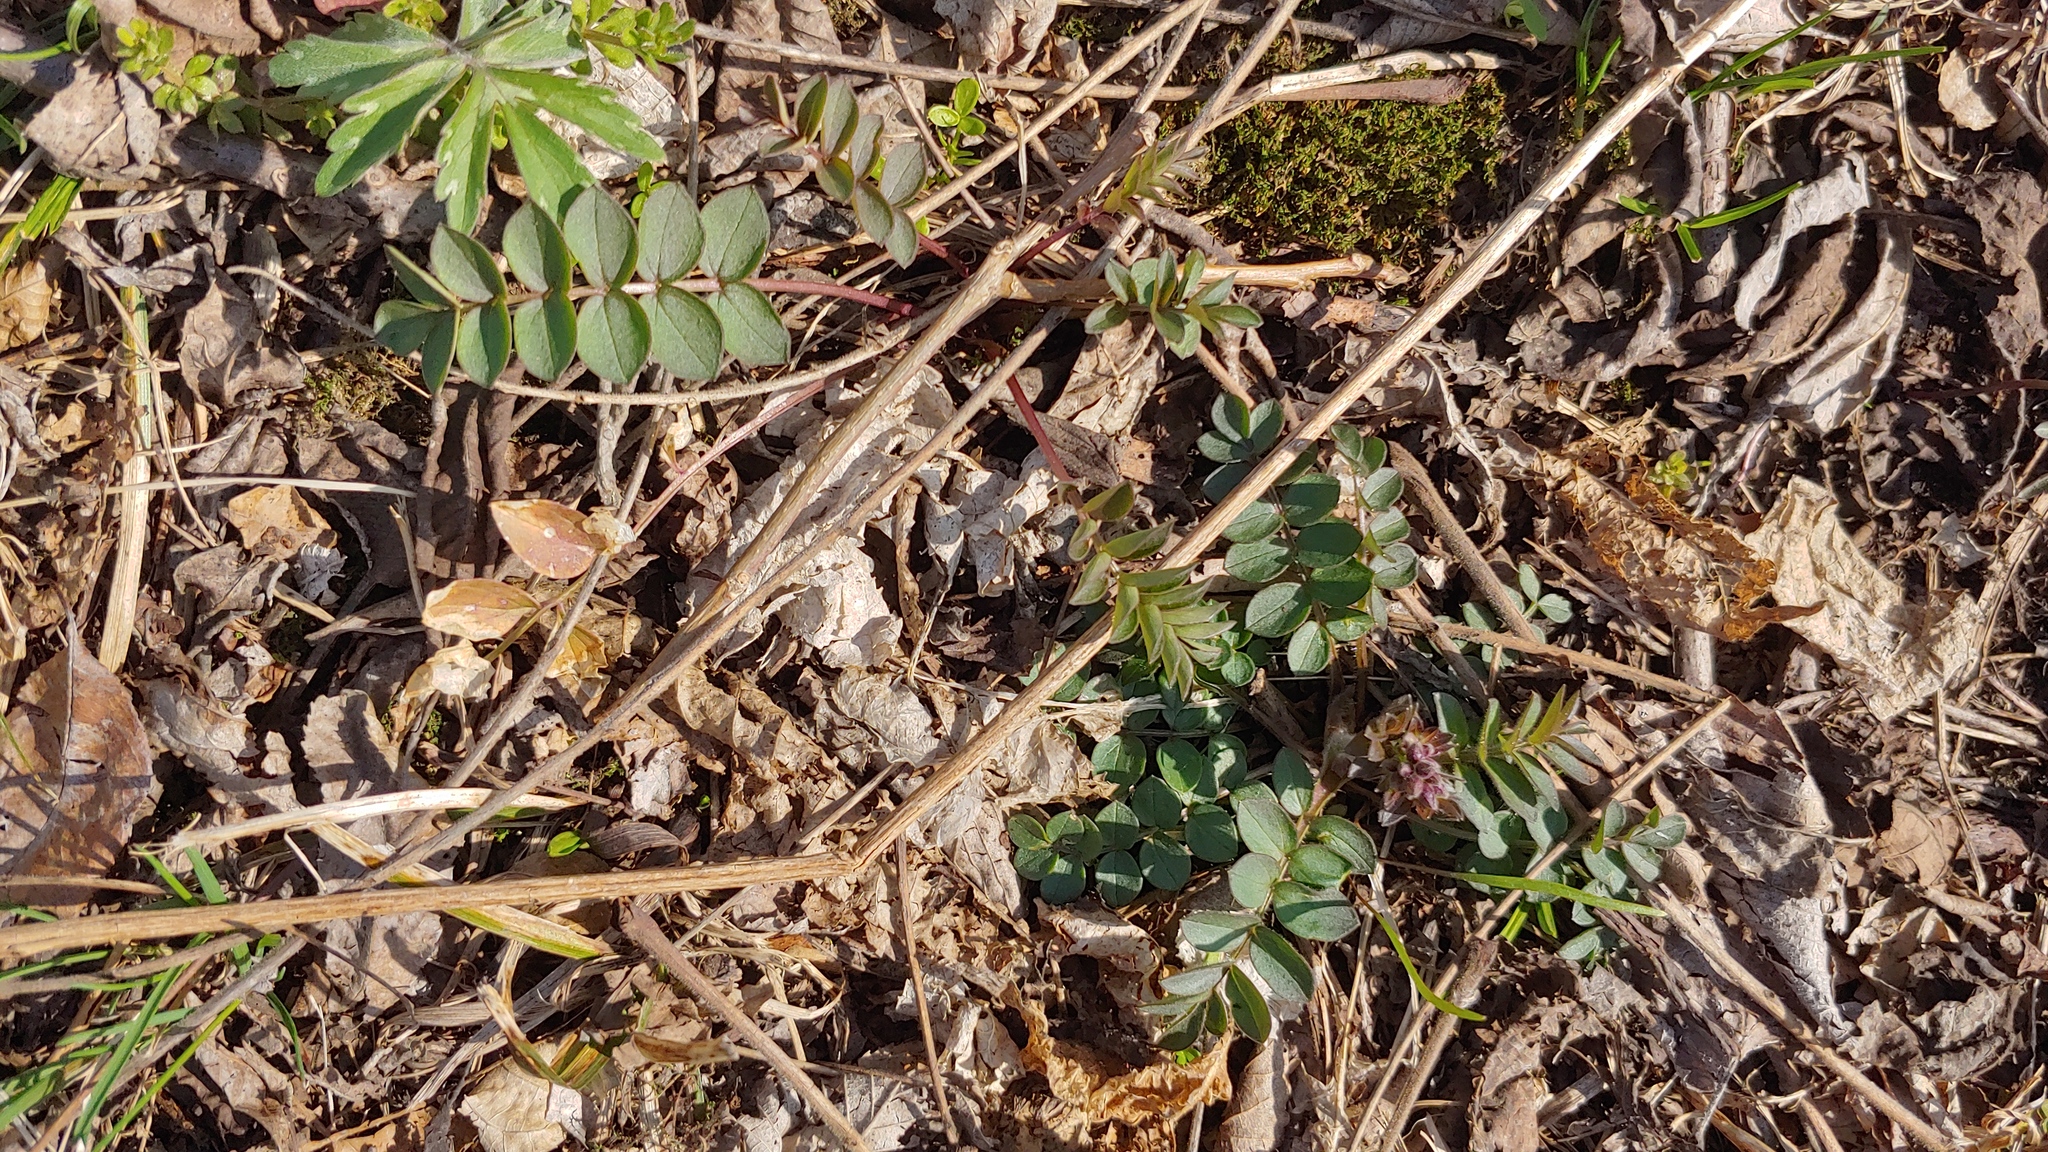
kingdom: Plantae
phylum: Tracheophyta
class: Magnoliopsida
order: Ericales
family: Polemoniaceae
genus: Polemonium
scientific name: Polemonium reptans
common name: Creeping jacob's-ladder
